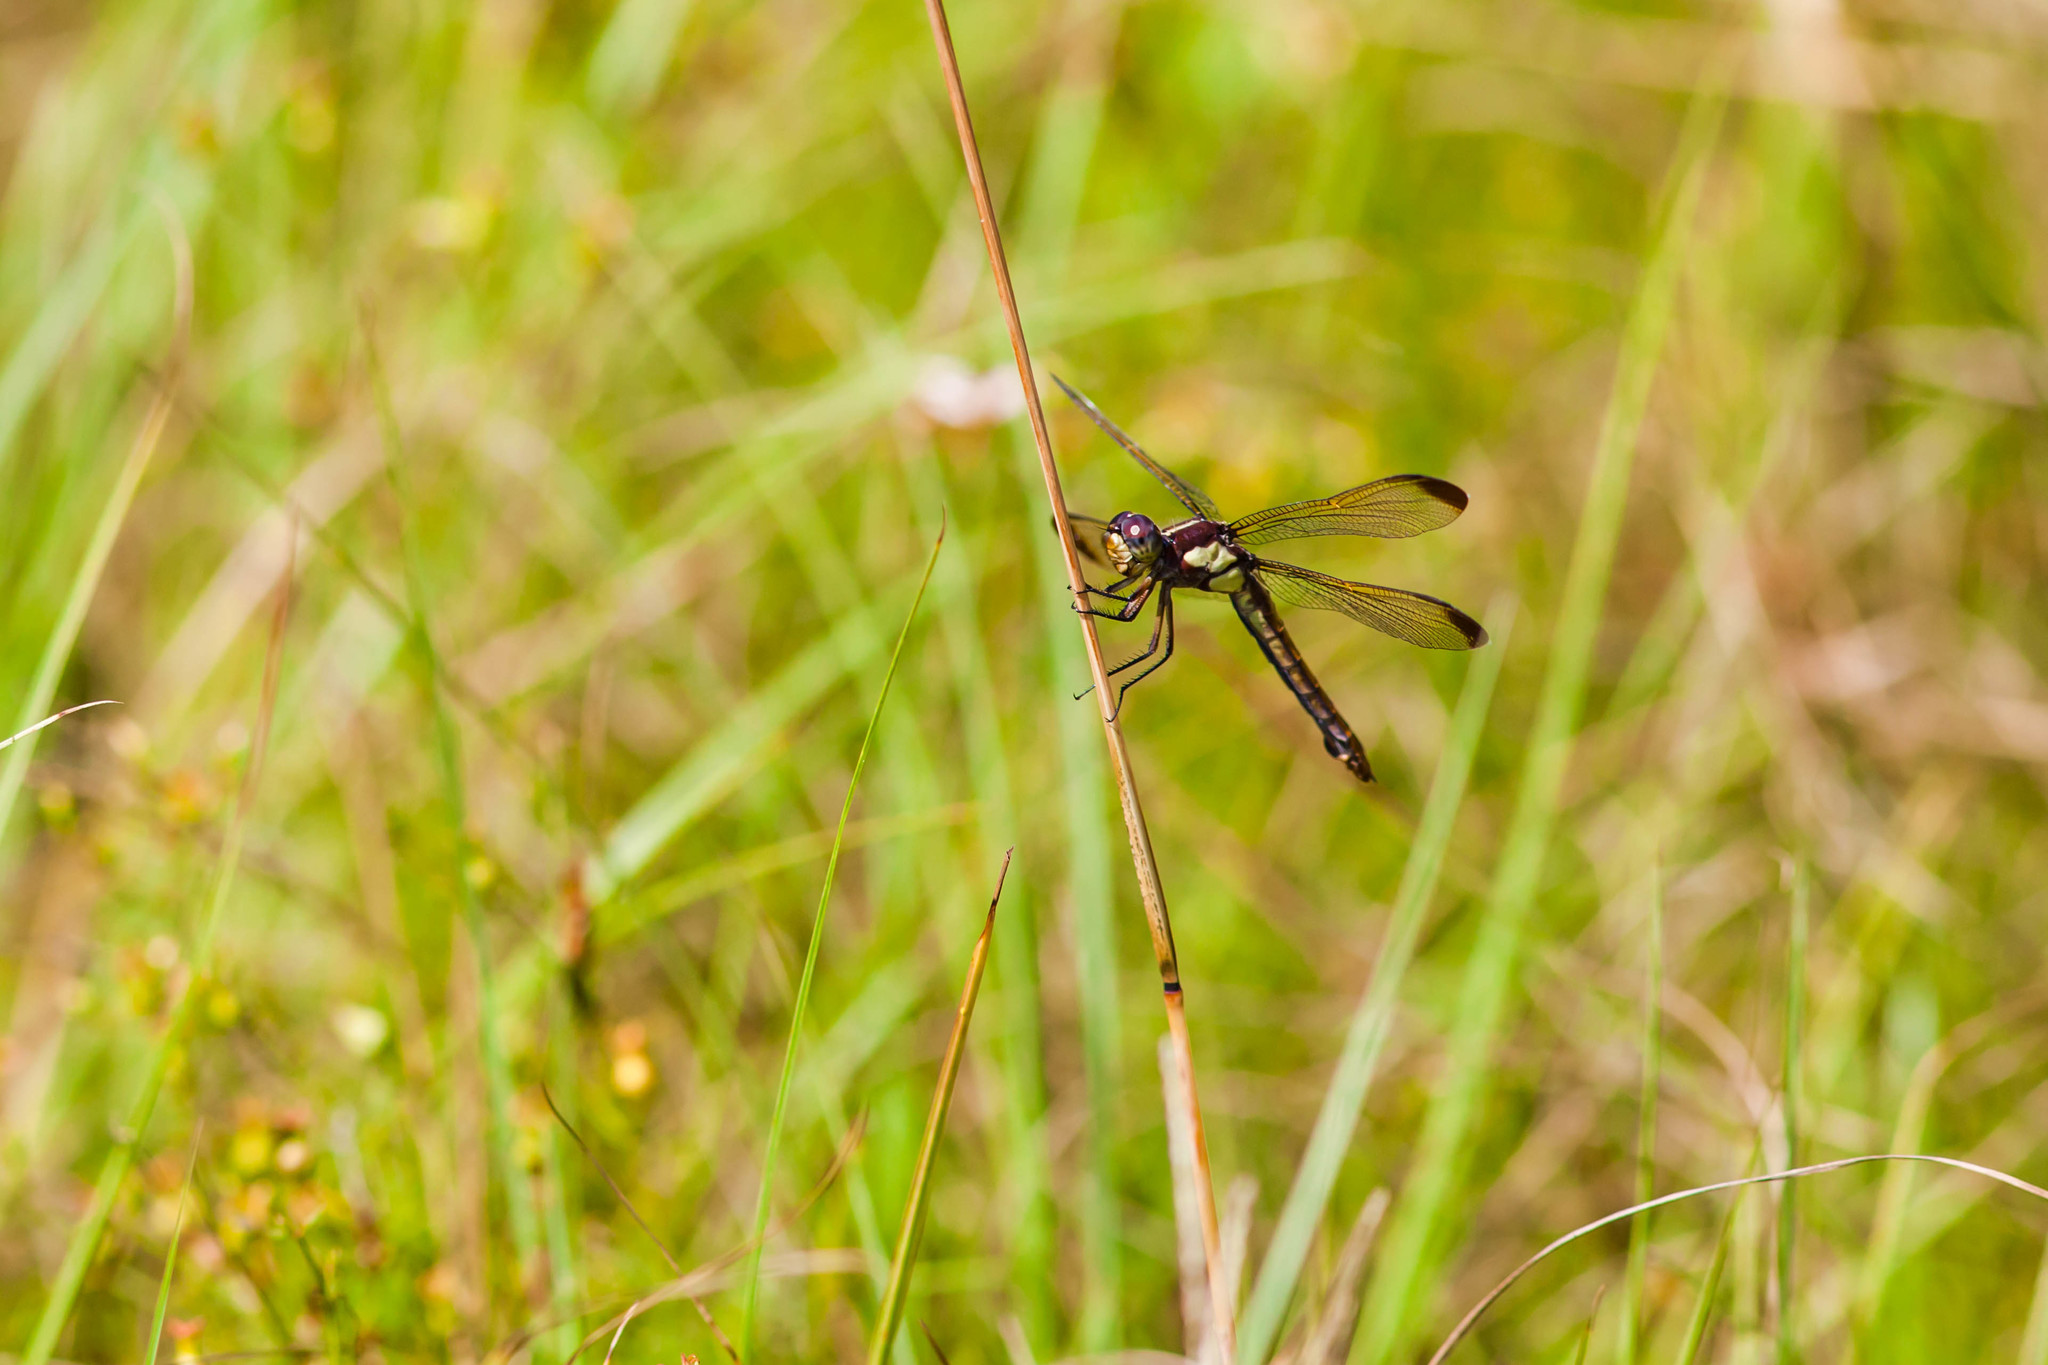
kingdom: Animalia
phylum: Arthropoda
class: Insecta
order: Odonata
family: Libellulidae
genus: Libellula
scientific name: Libellula flavida
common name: Yellow-sided skimmer
